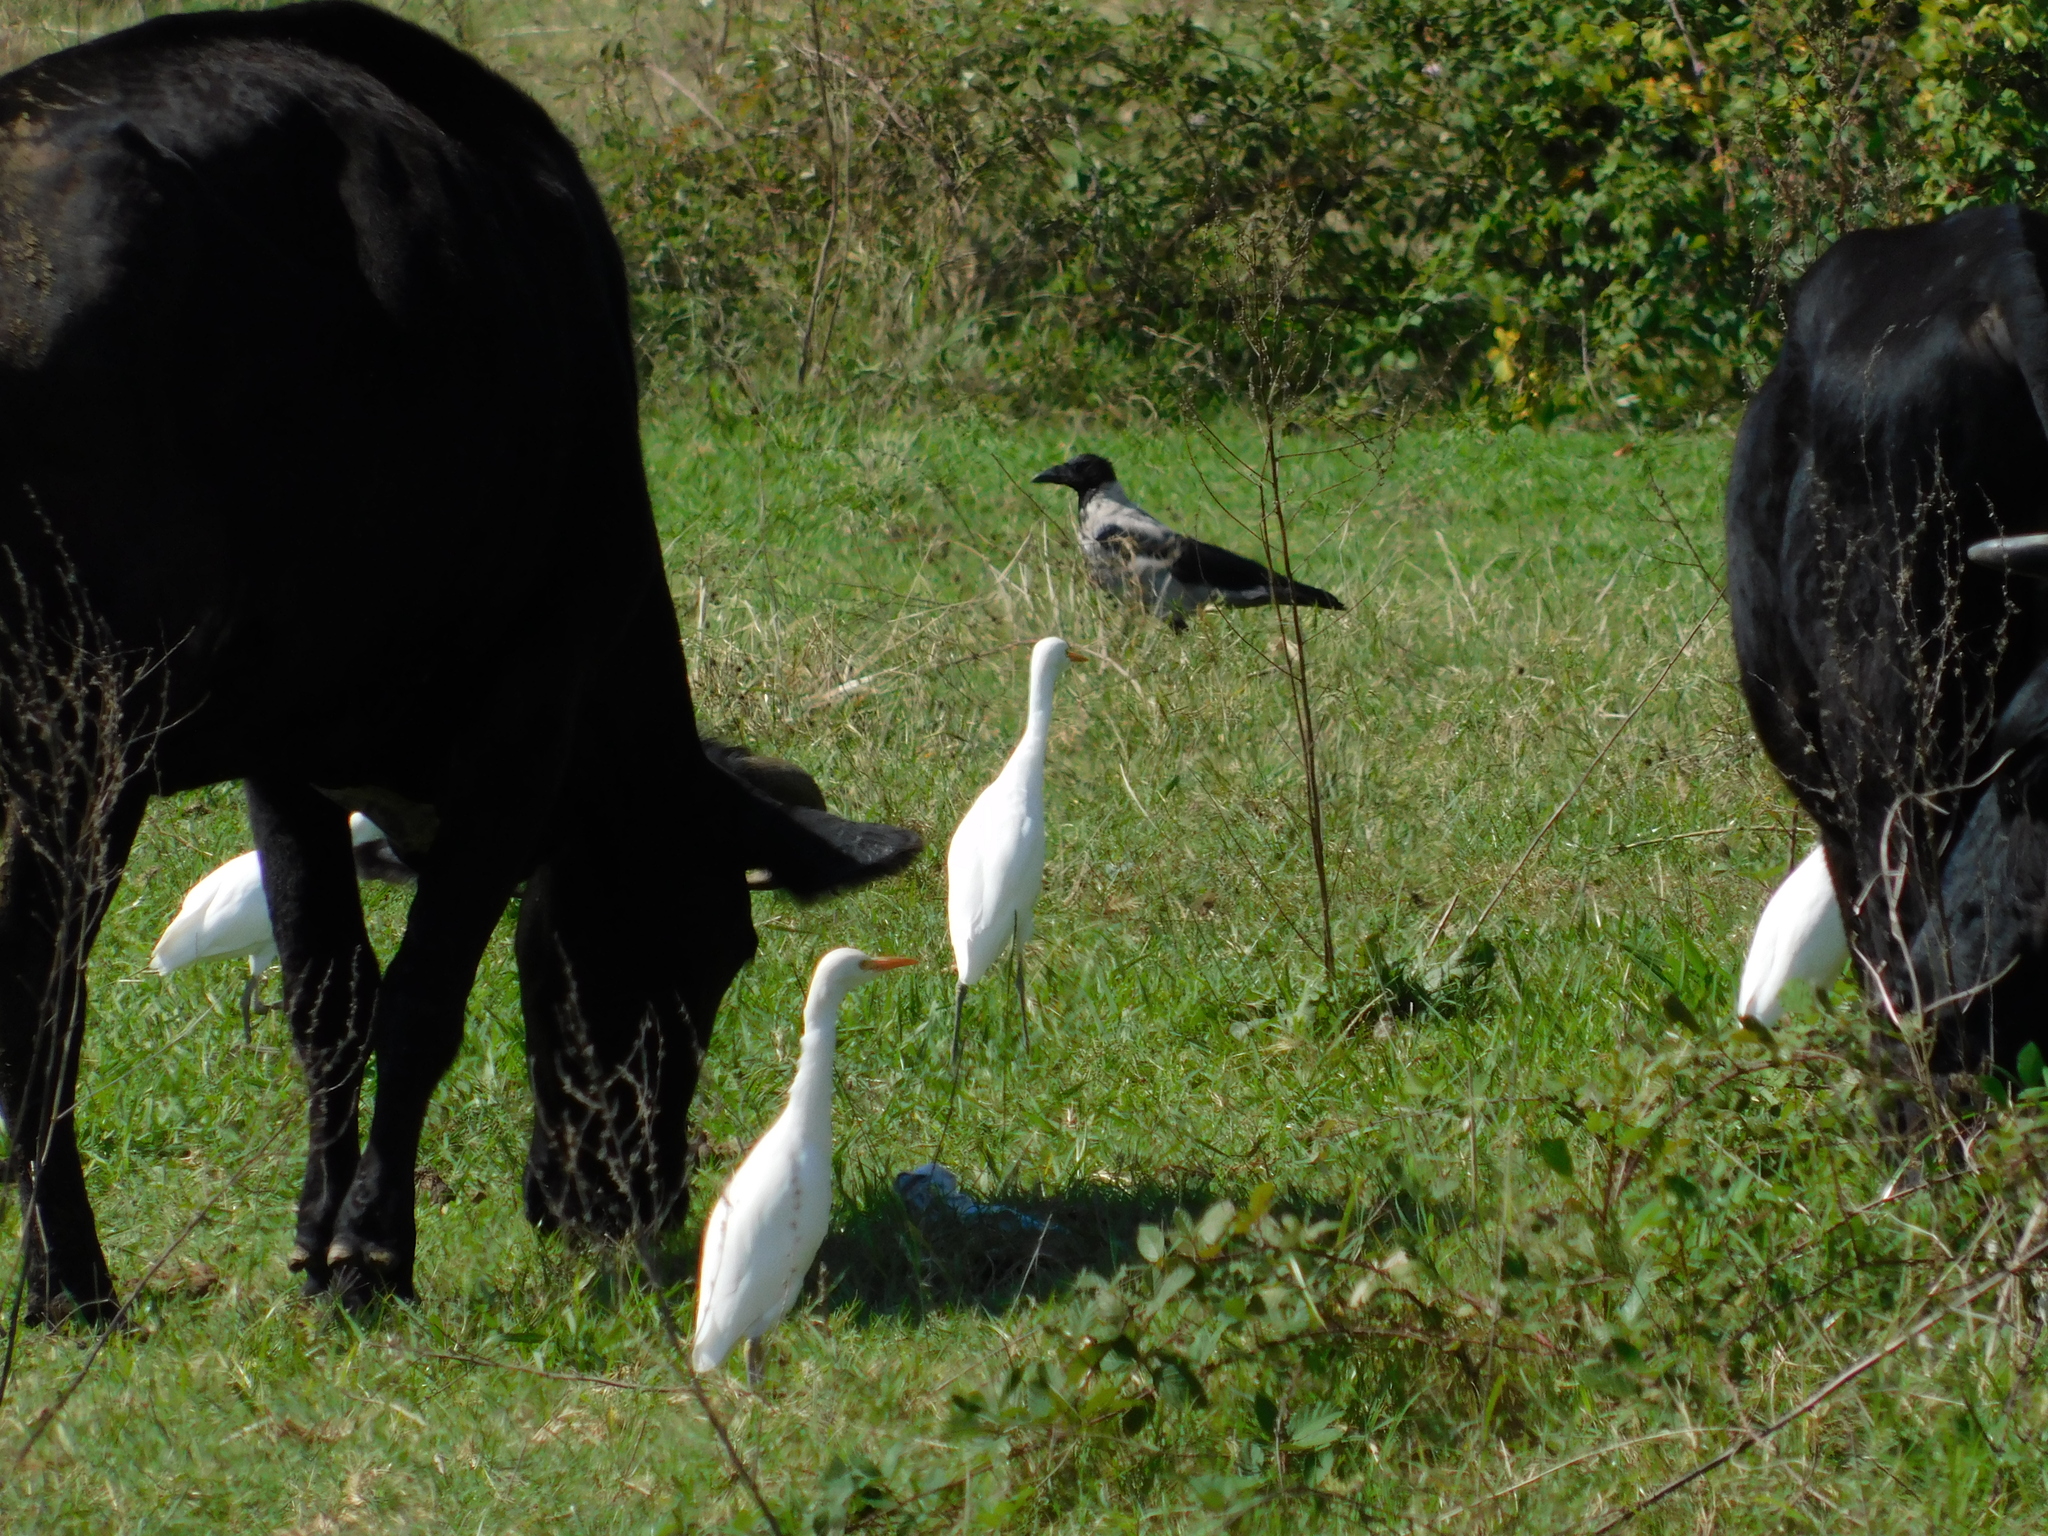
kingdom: Animalia
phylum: Chordata
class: Aves
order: Pelecaniformes
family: Ardeidae
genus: Bubulcus
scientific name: Bubulcus ibis
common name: Cattle egret
